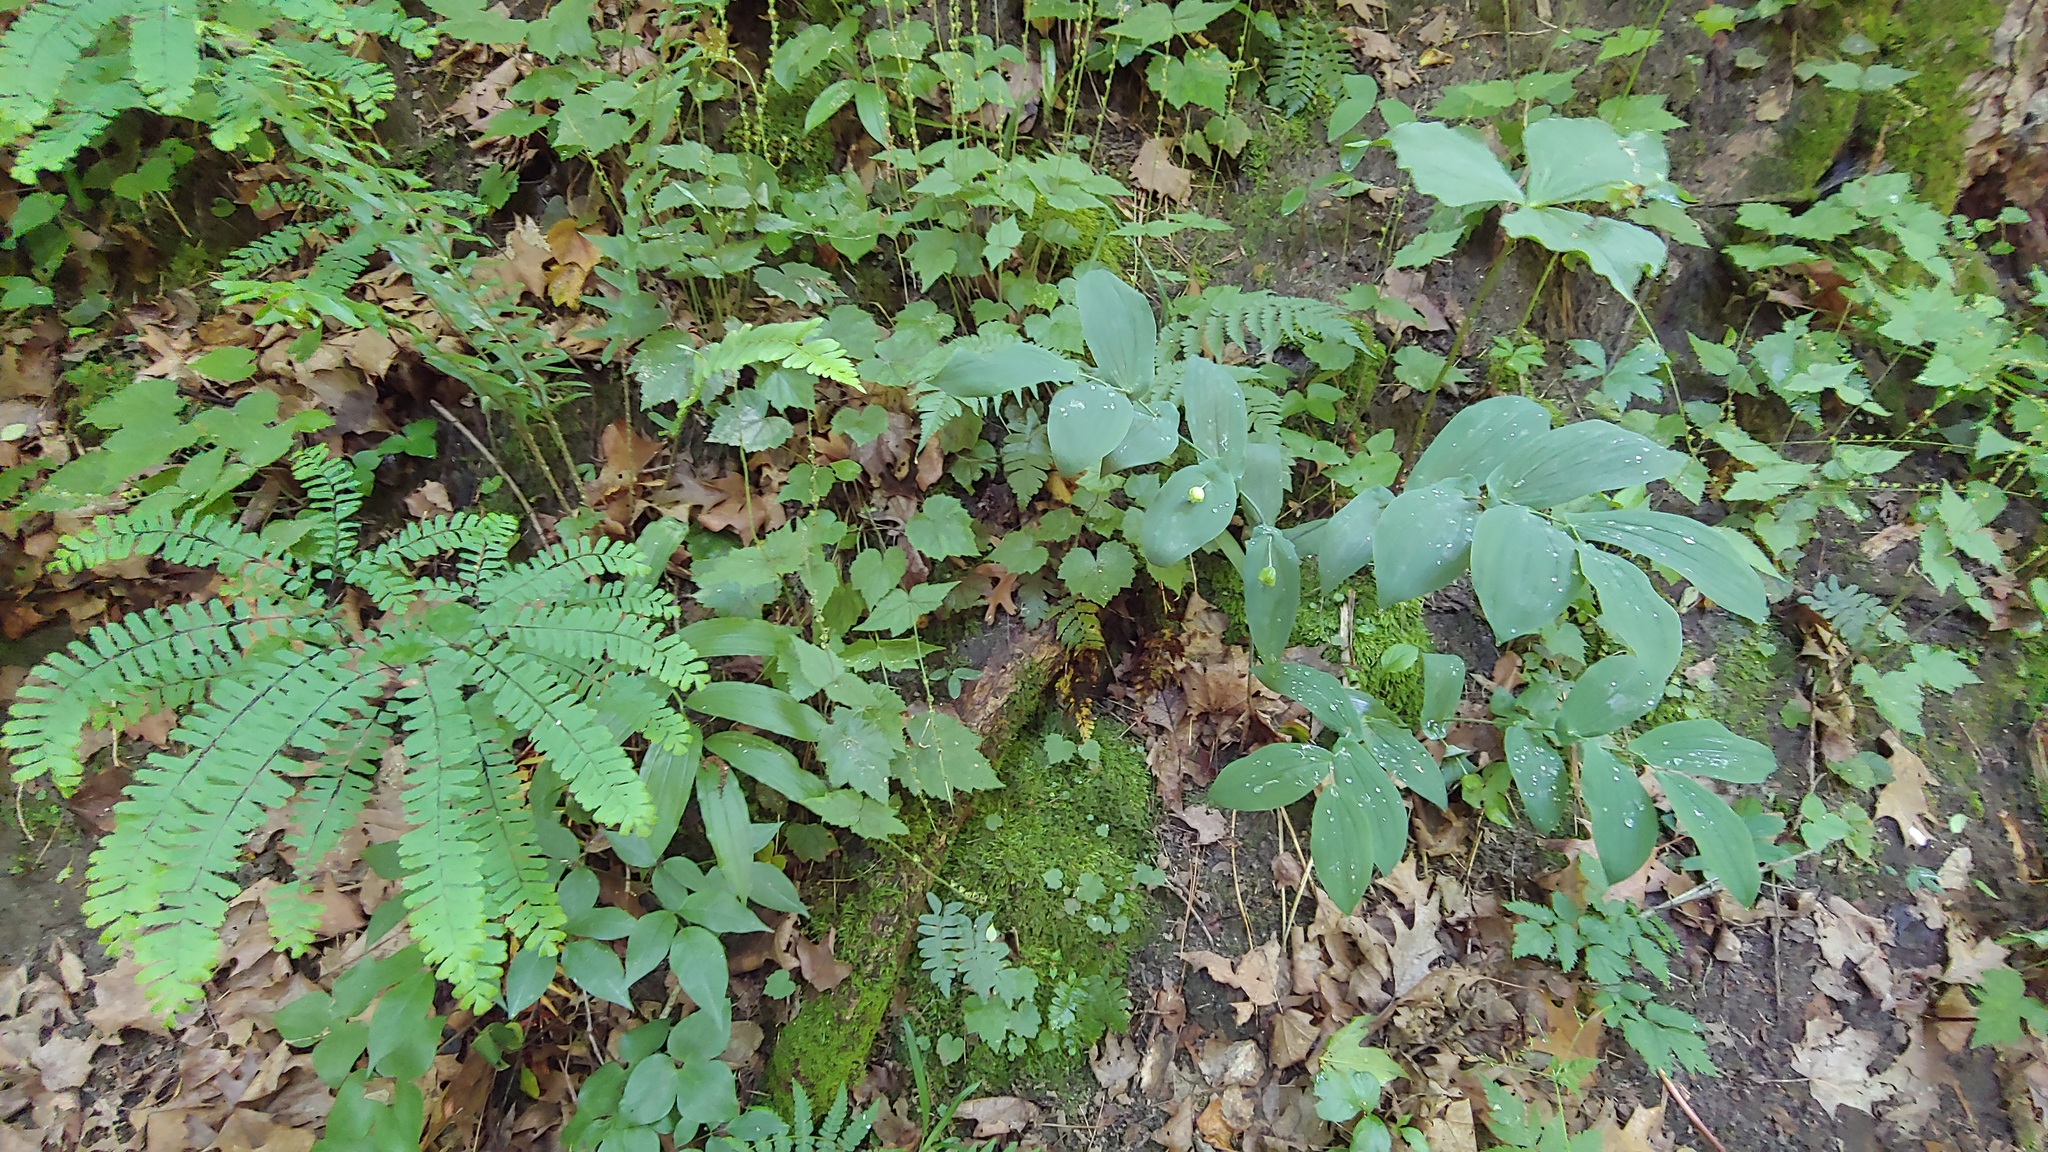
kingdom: Plantae
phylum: Tracheophyta
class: Polypodiopsida
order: Polypodiales
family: Pteridaceae
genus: Adiantum
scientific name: Adiantum pedatum
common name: Five-finger fern
